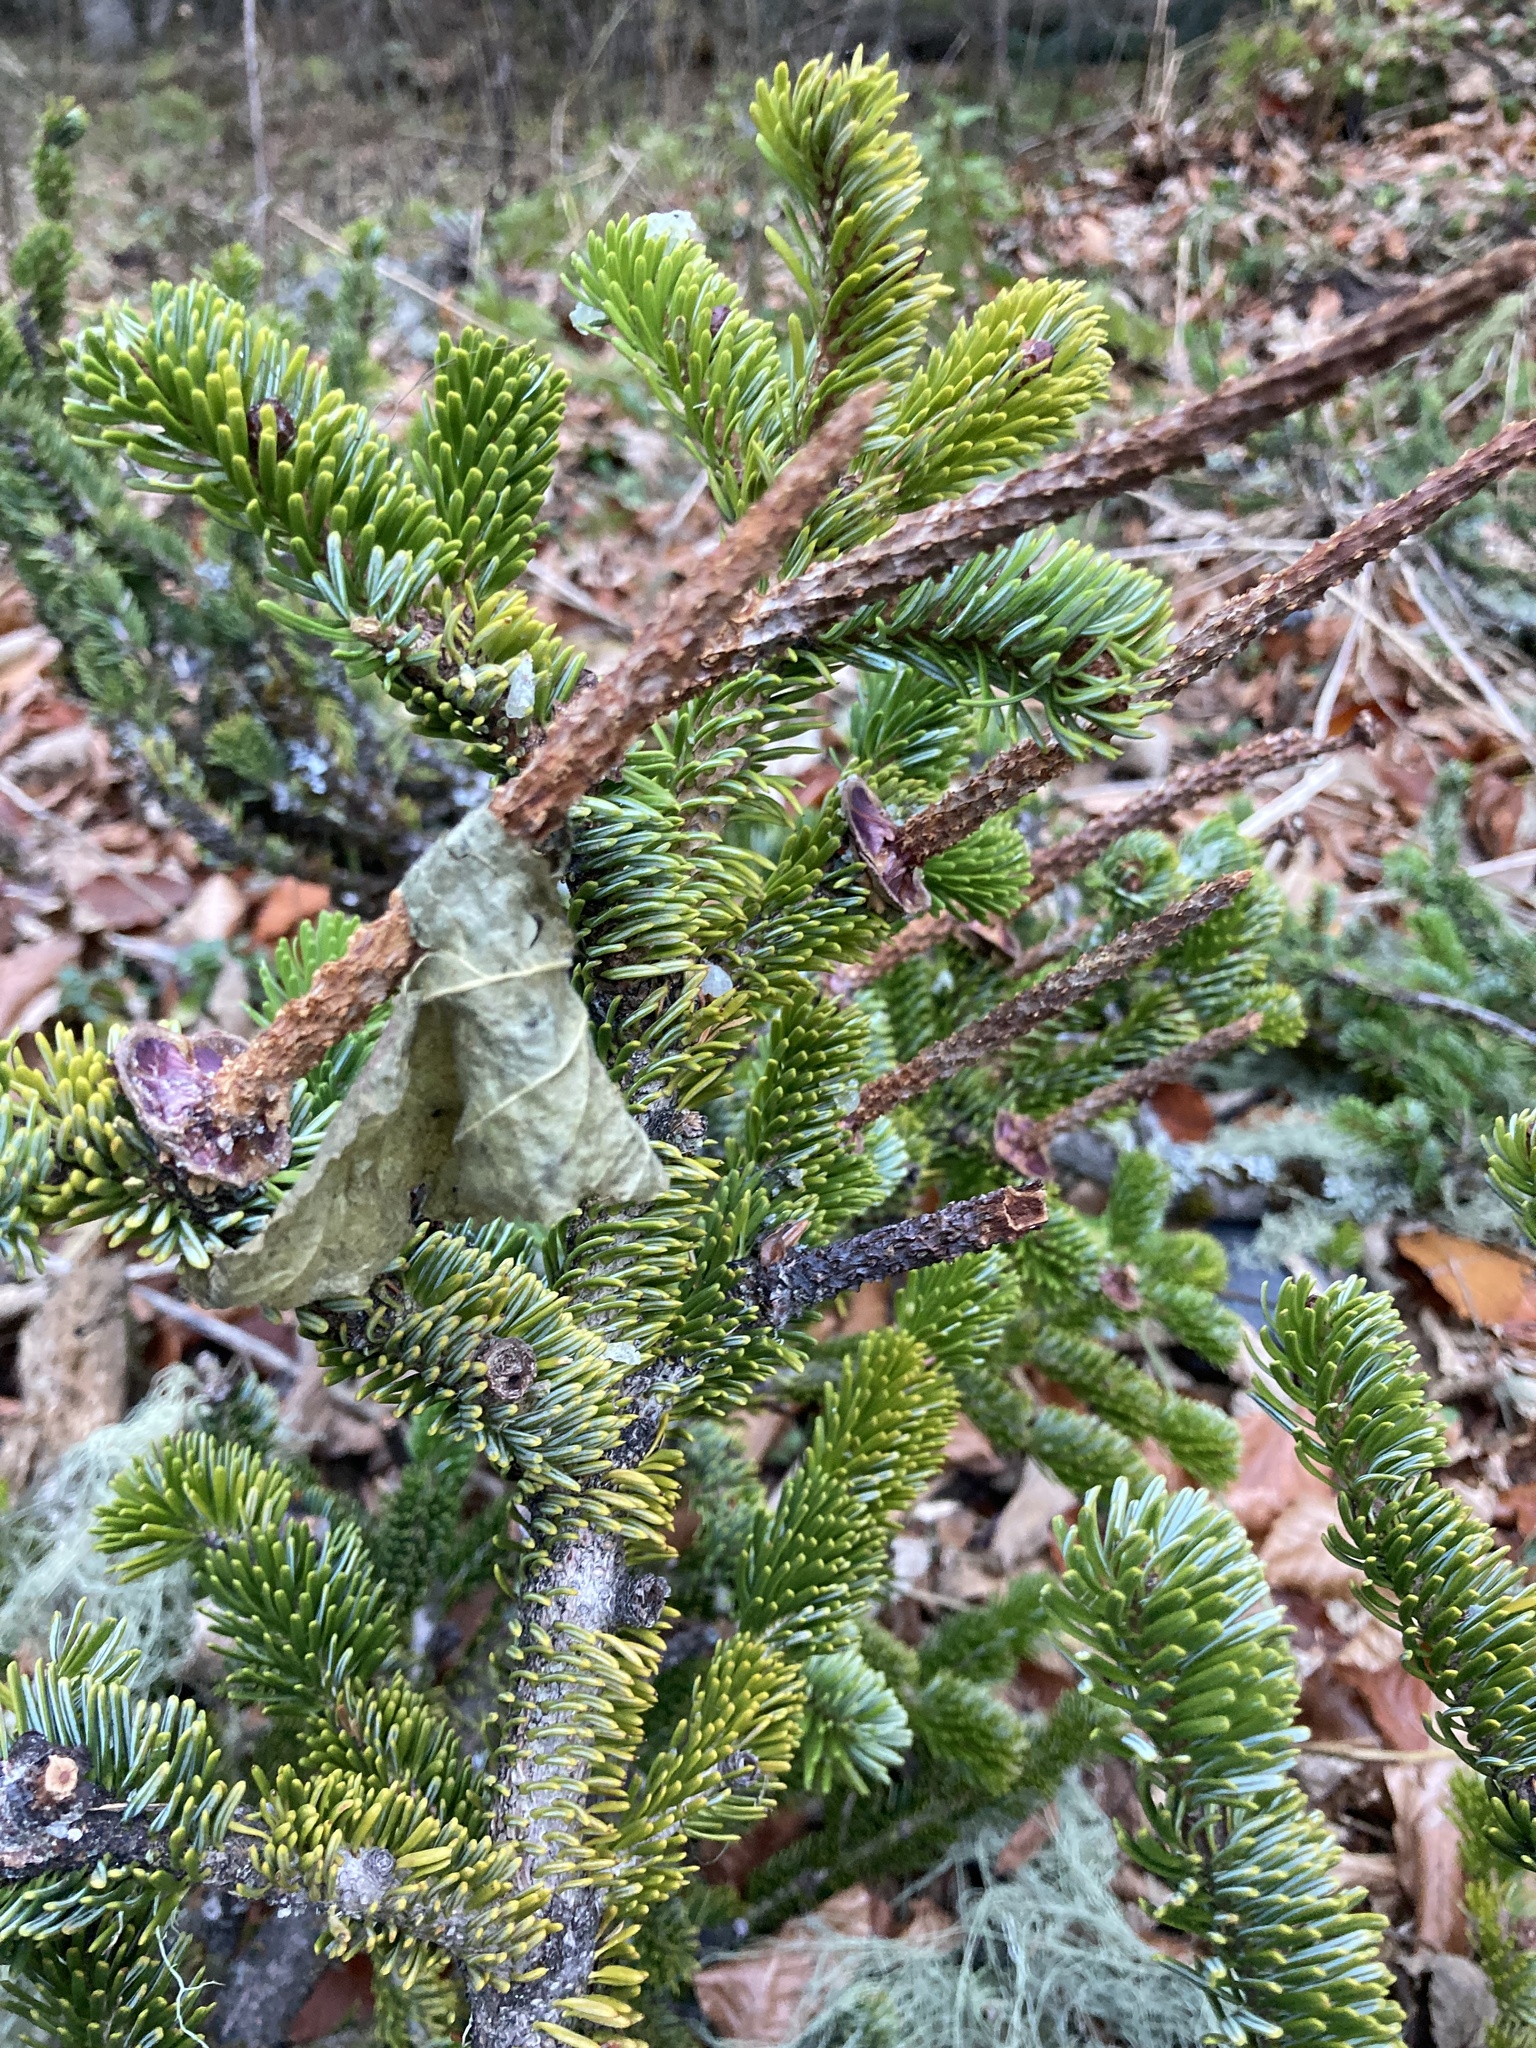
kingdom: Plantae
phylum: Tracheophyta
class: Pinopsida
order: Pinales
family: Pinaceae
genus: Abies
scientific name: Abies nordmanniana
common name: Caucasian fir
